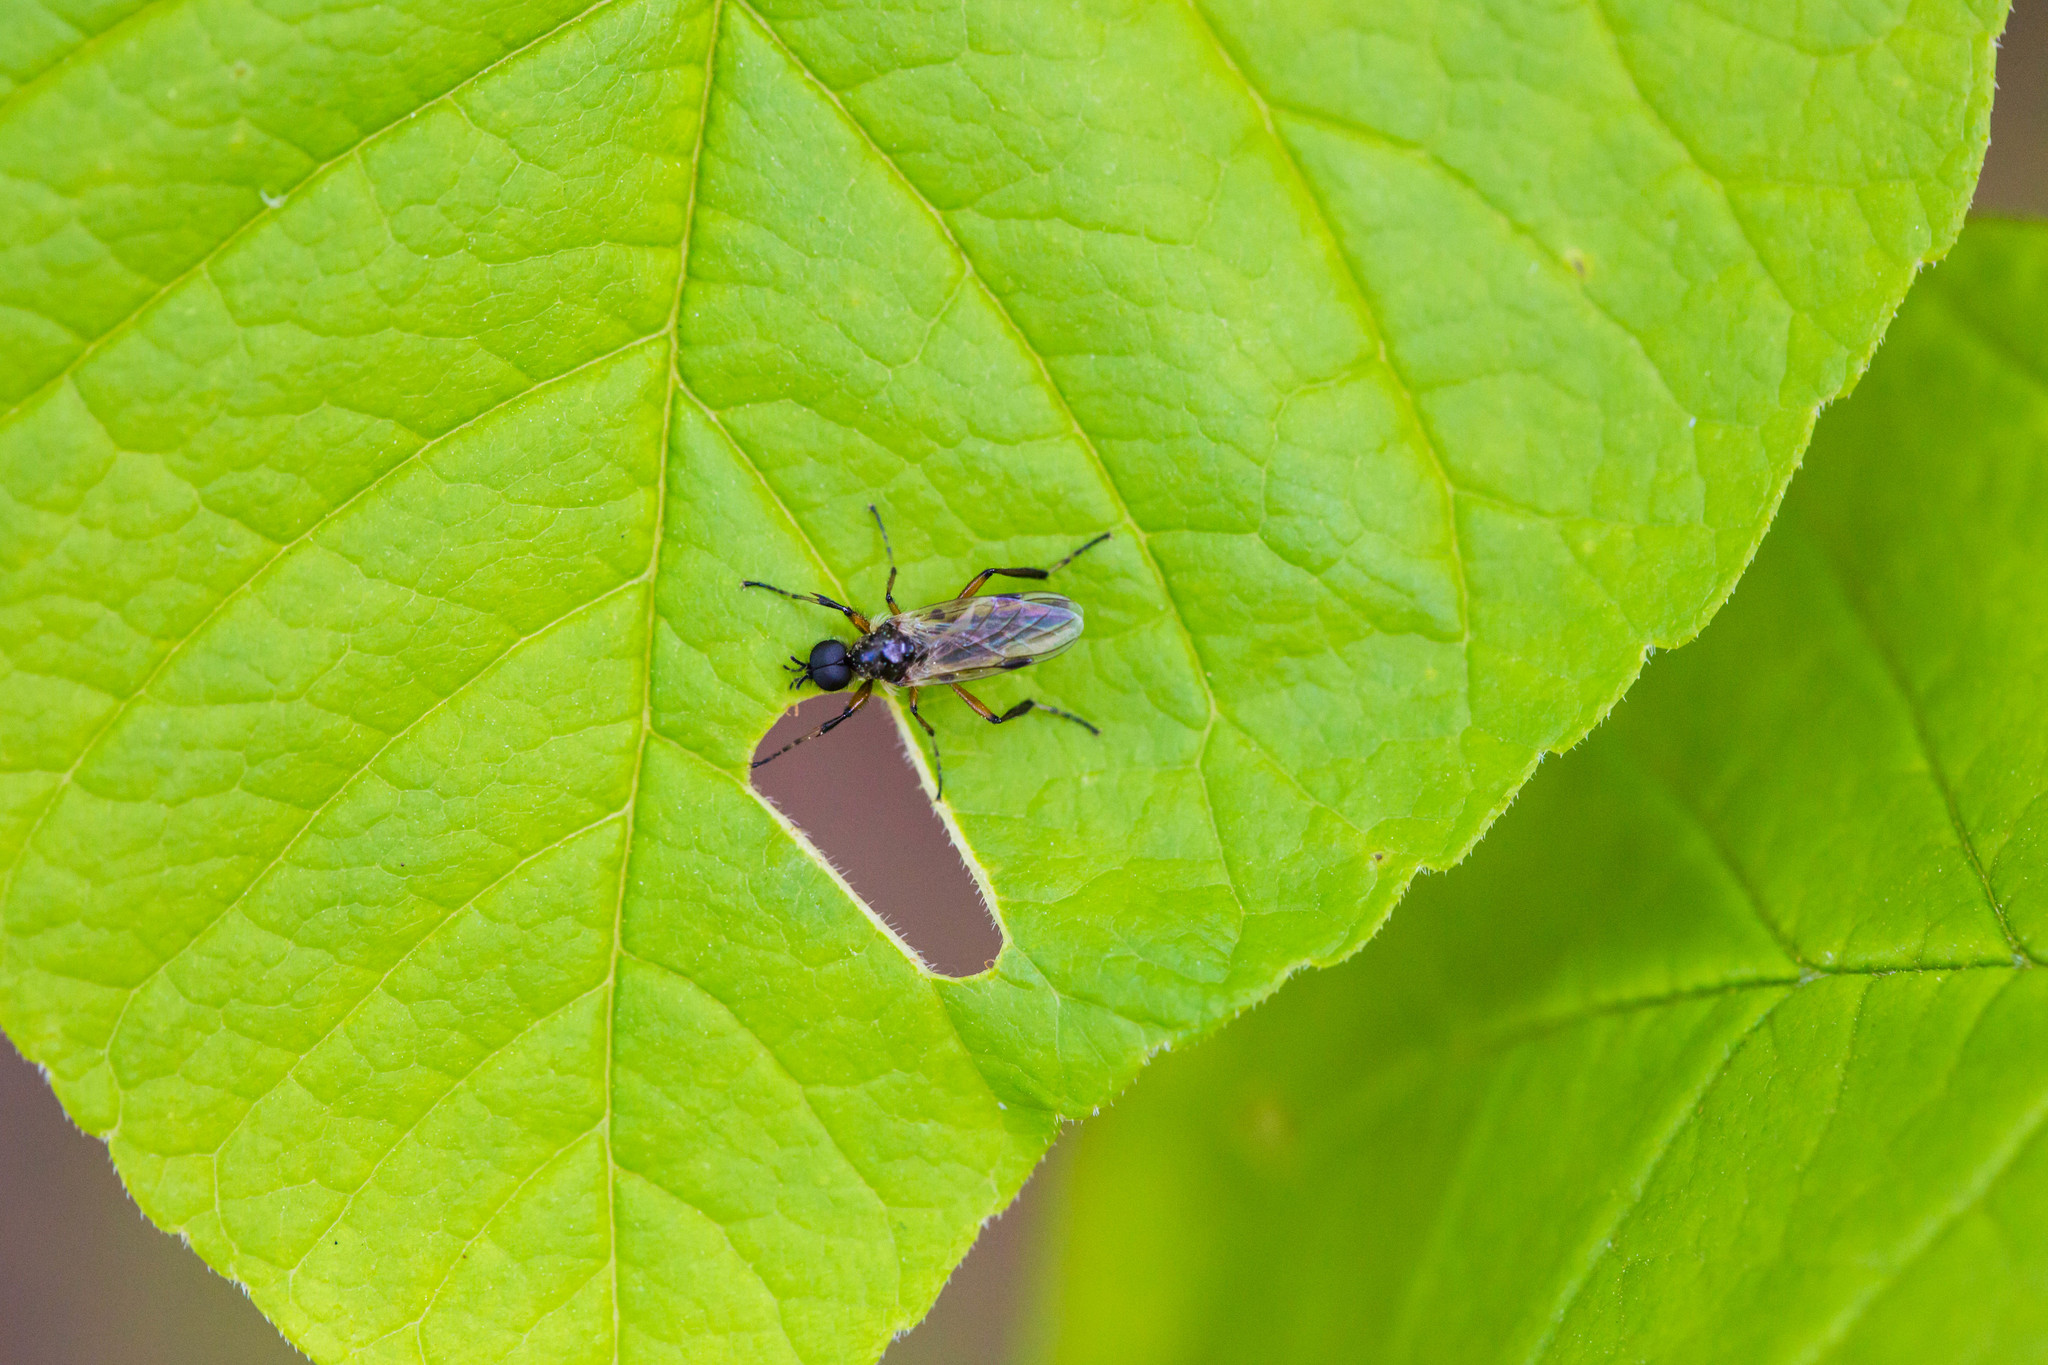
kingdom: Animalia
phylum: Arthropoda
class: Insecta
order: Diptera
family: Bibionidae
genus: Bibio
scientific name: Bibio articulatus
